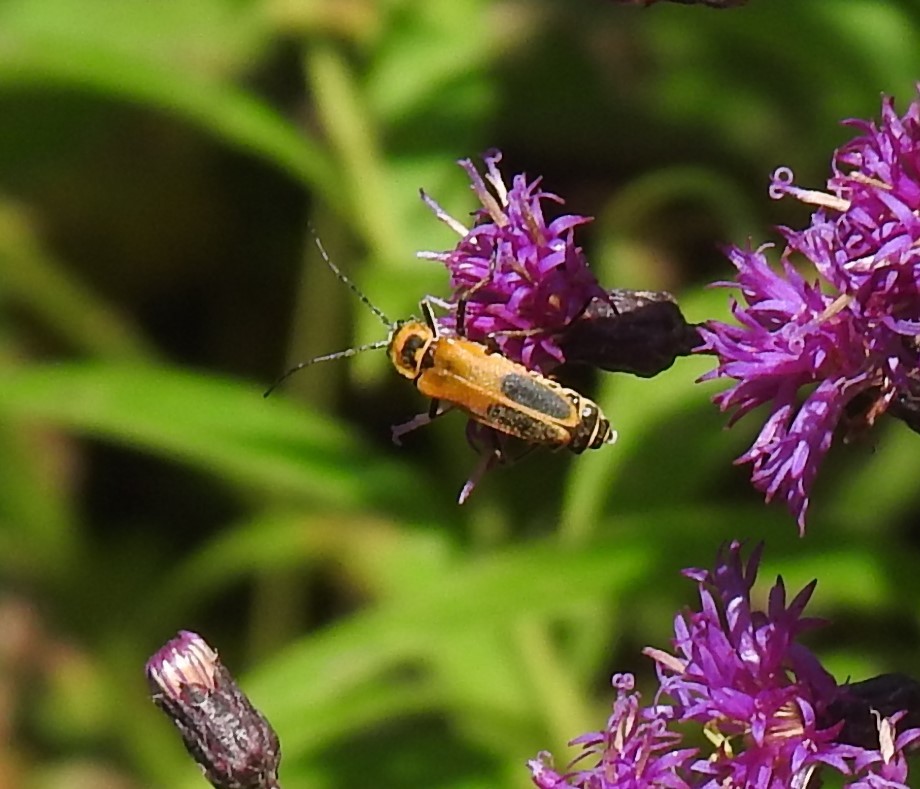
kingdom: Animalia
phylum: Arthropoda
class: Insecta
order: Coleoptera
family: Cantharidae
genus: Chauliognathus
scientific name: Chauliognathus pensylvanicus
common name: Goldenrod soldier beetle
